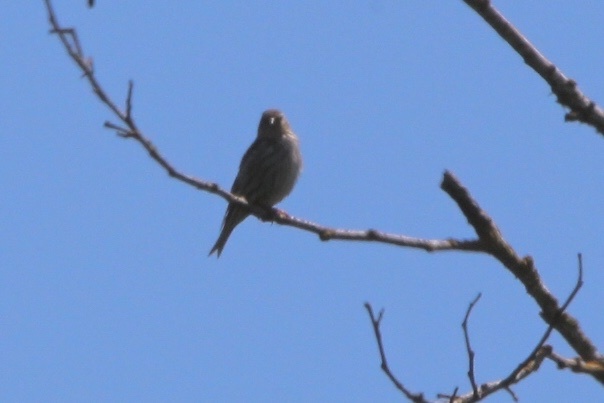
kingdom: Animalia
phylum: Chordata
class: Aves
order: Passeriformes
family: Fringillidae
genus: Spinus
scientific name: Spinus pinus
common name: Pine siskin
